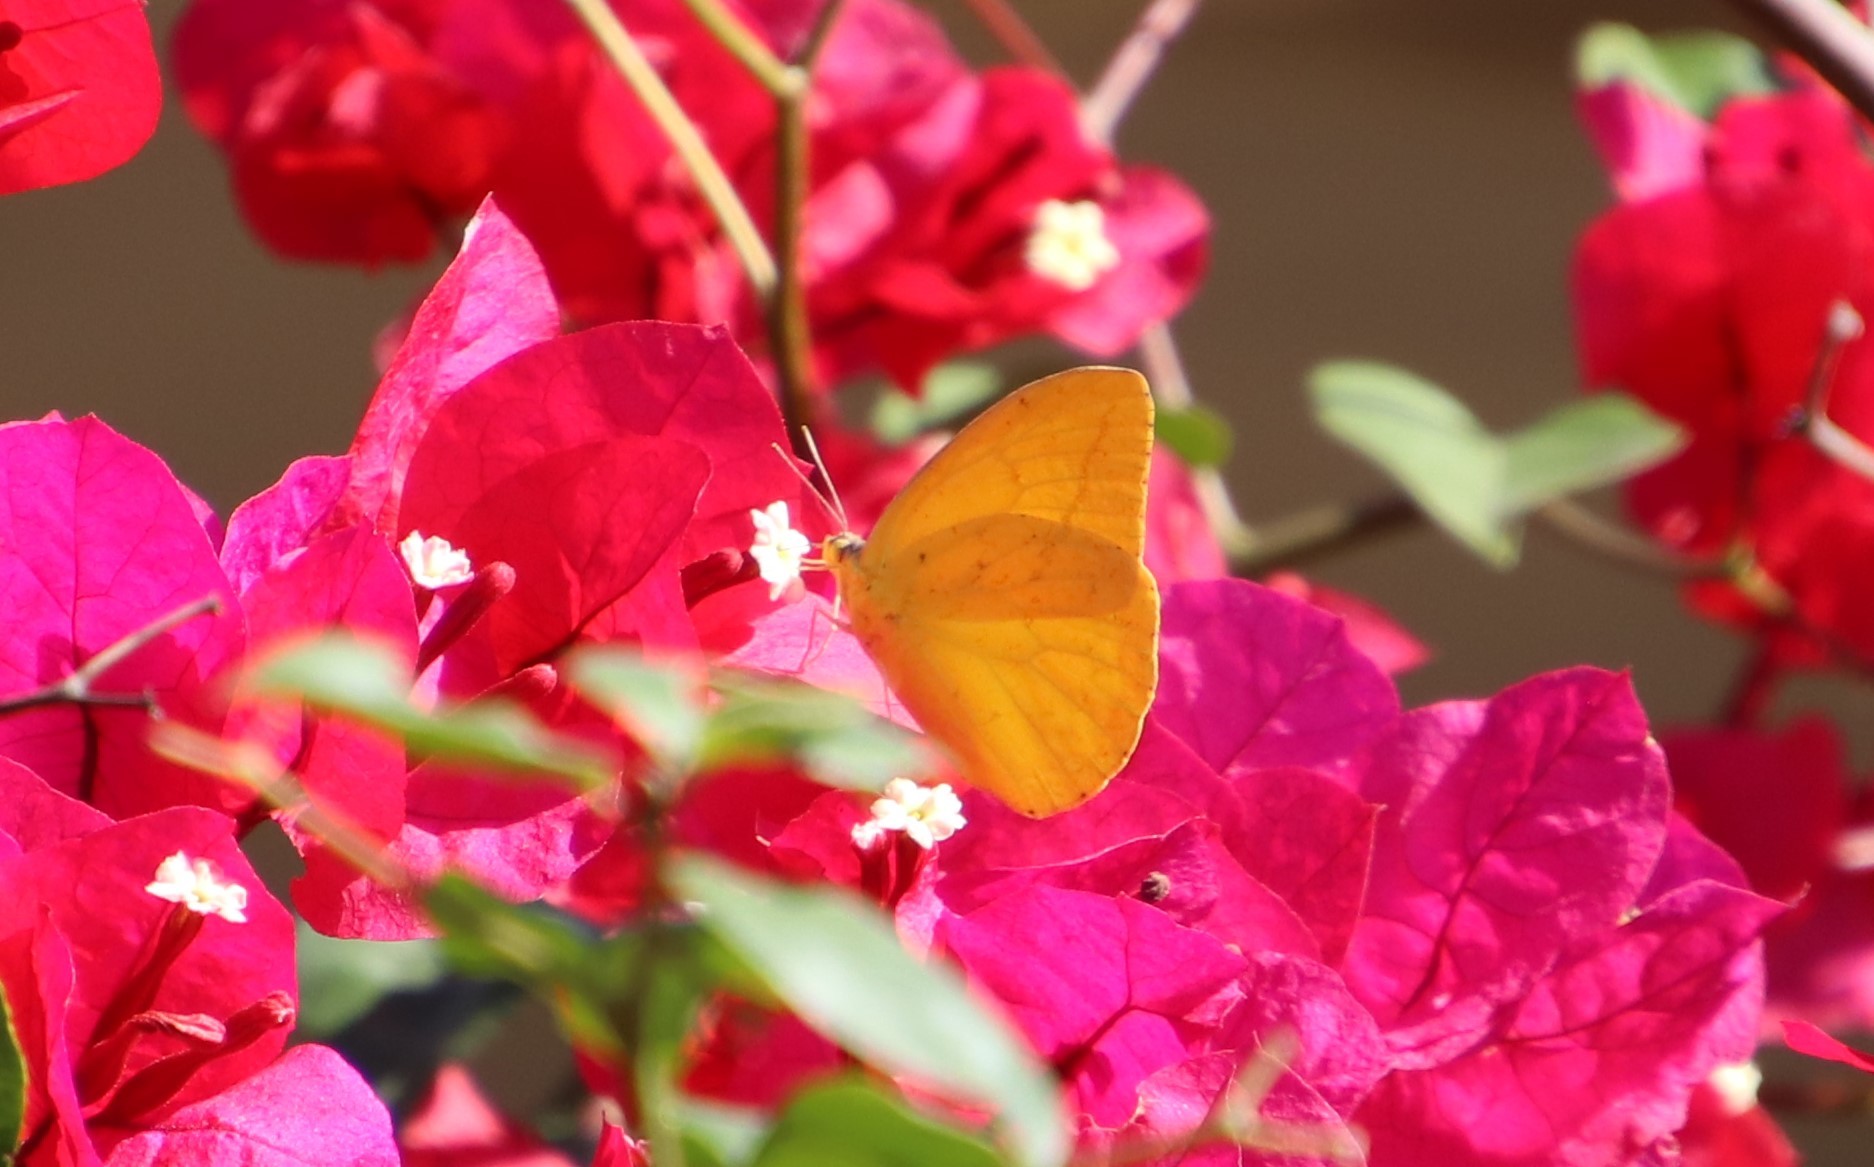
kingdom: Animalia
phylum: Arthropoda
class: Insecta
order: Lepidoptera
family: Pieridae
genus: Phoebis
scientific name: Phoebis agarithe
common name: Large orange sulphur
